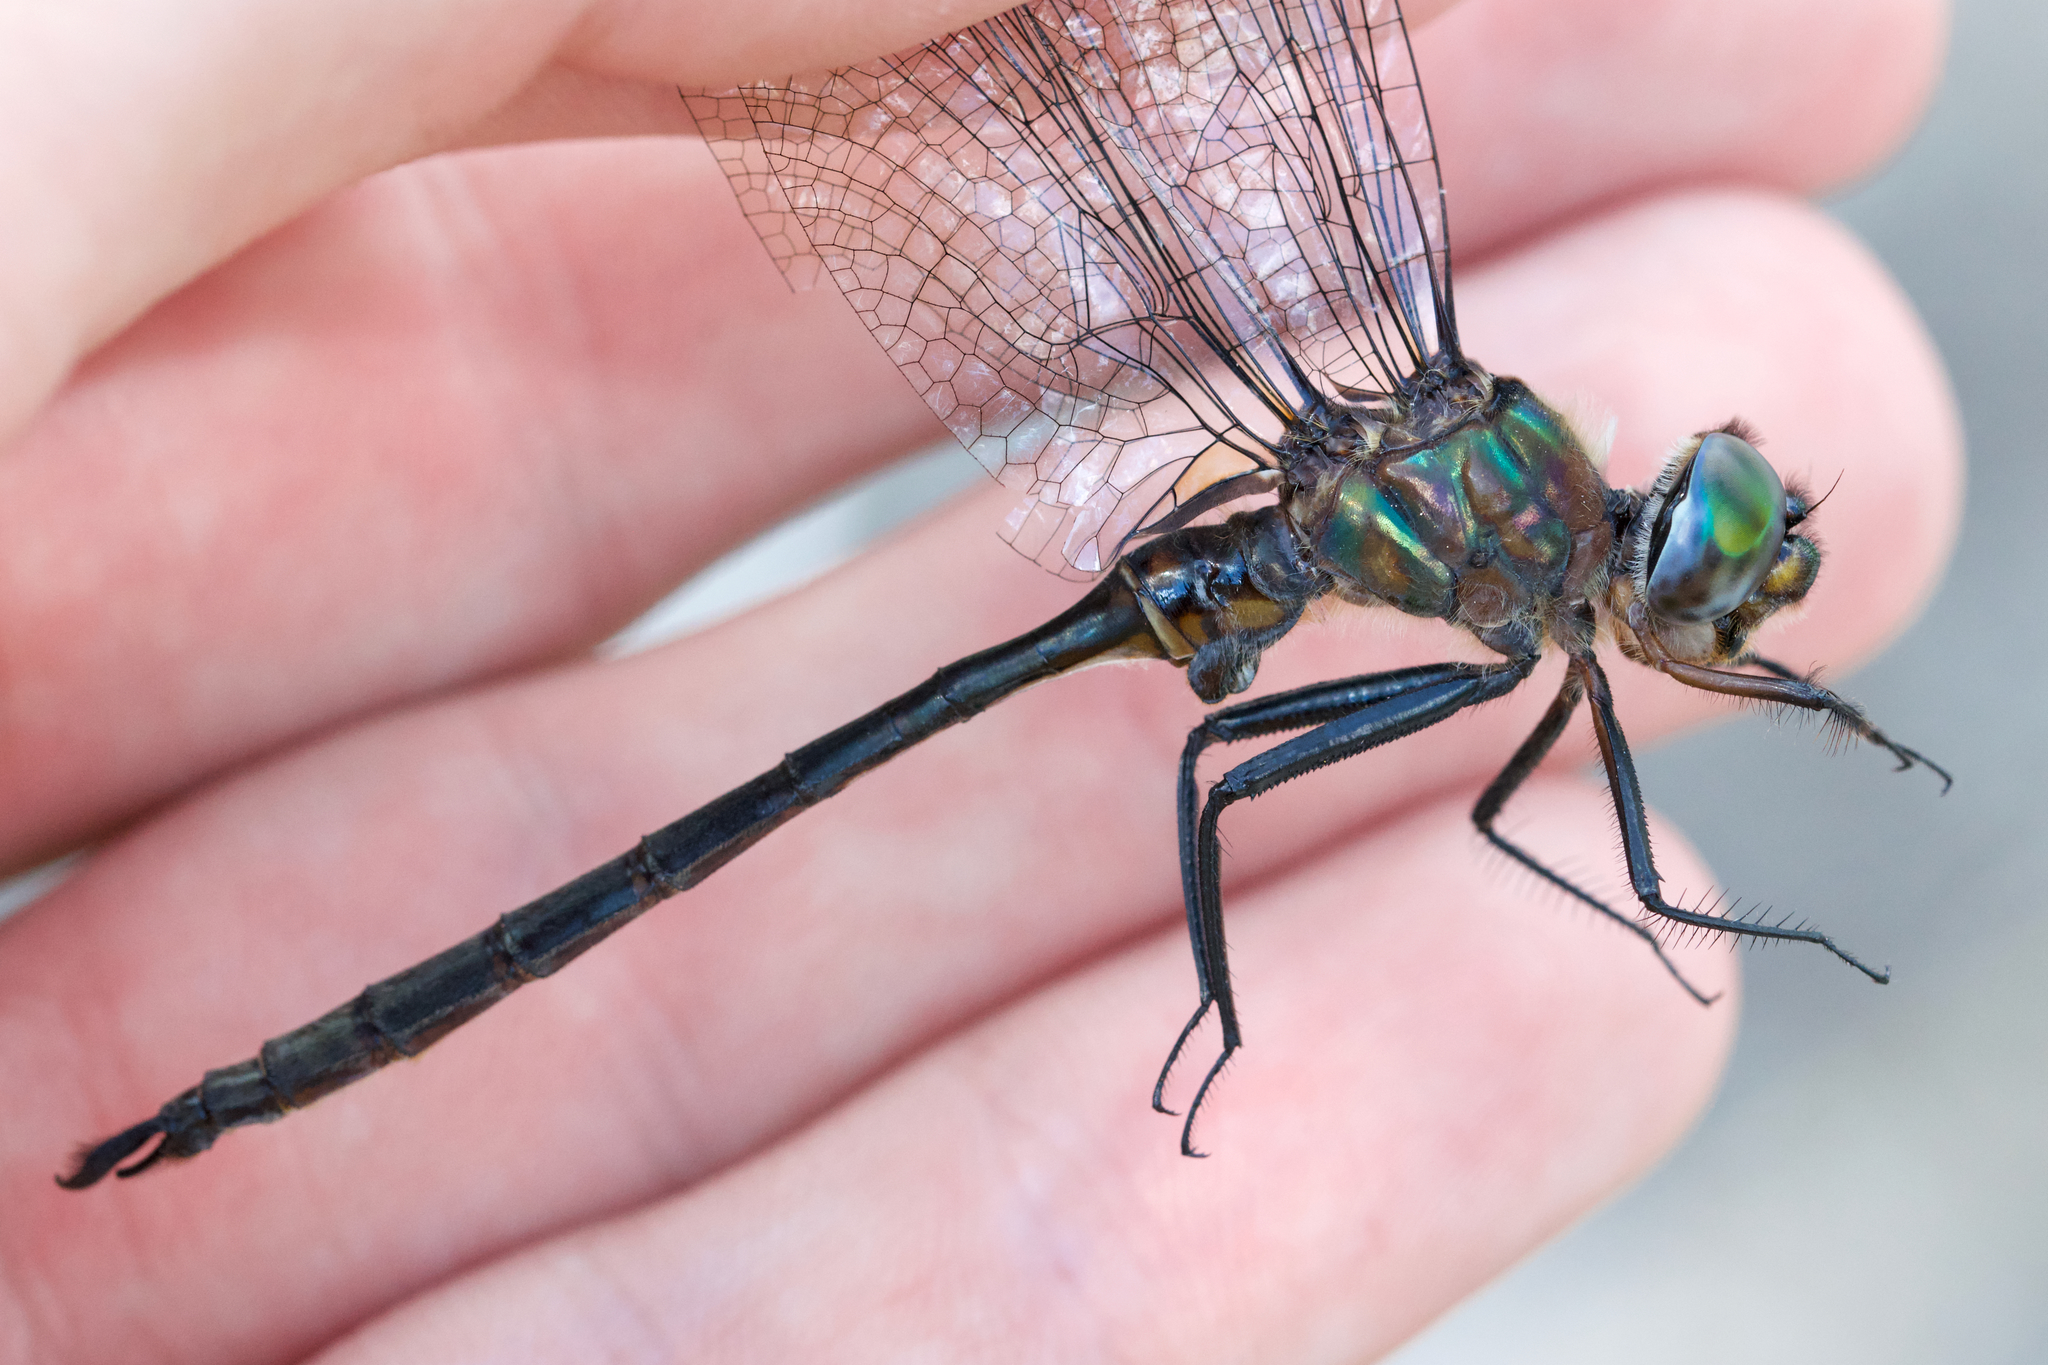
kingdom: Animalia
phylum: Arthropoda
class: Insecta
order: Odonata
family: Corduliidae
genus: Somatochlora
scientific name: Somatochlora williamsoni
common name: Williamson's emerald
